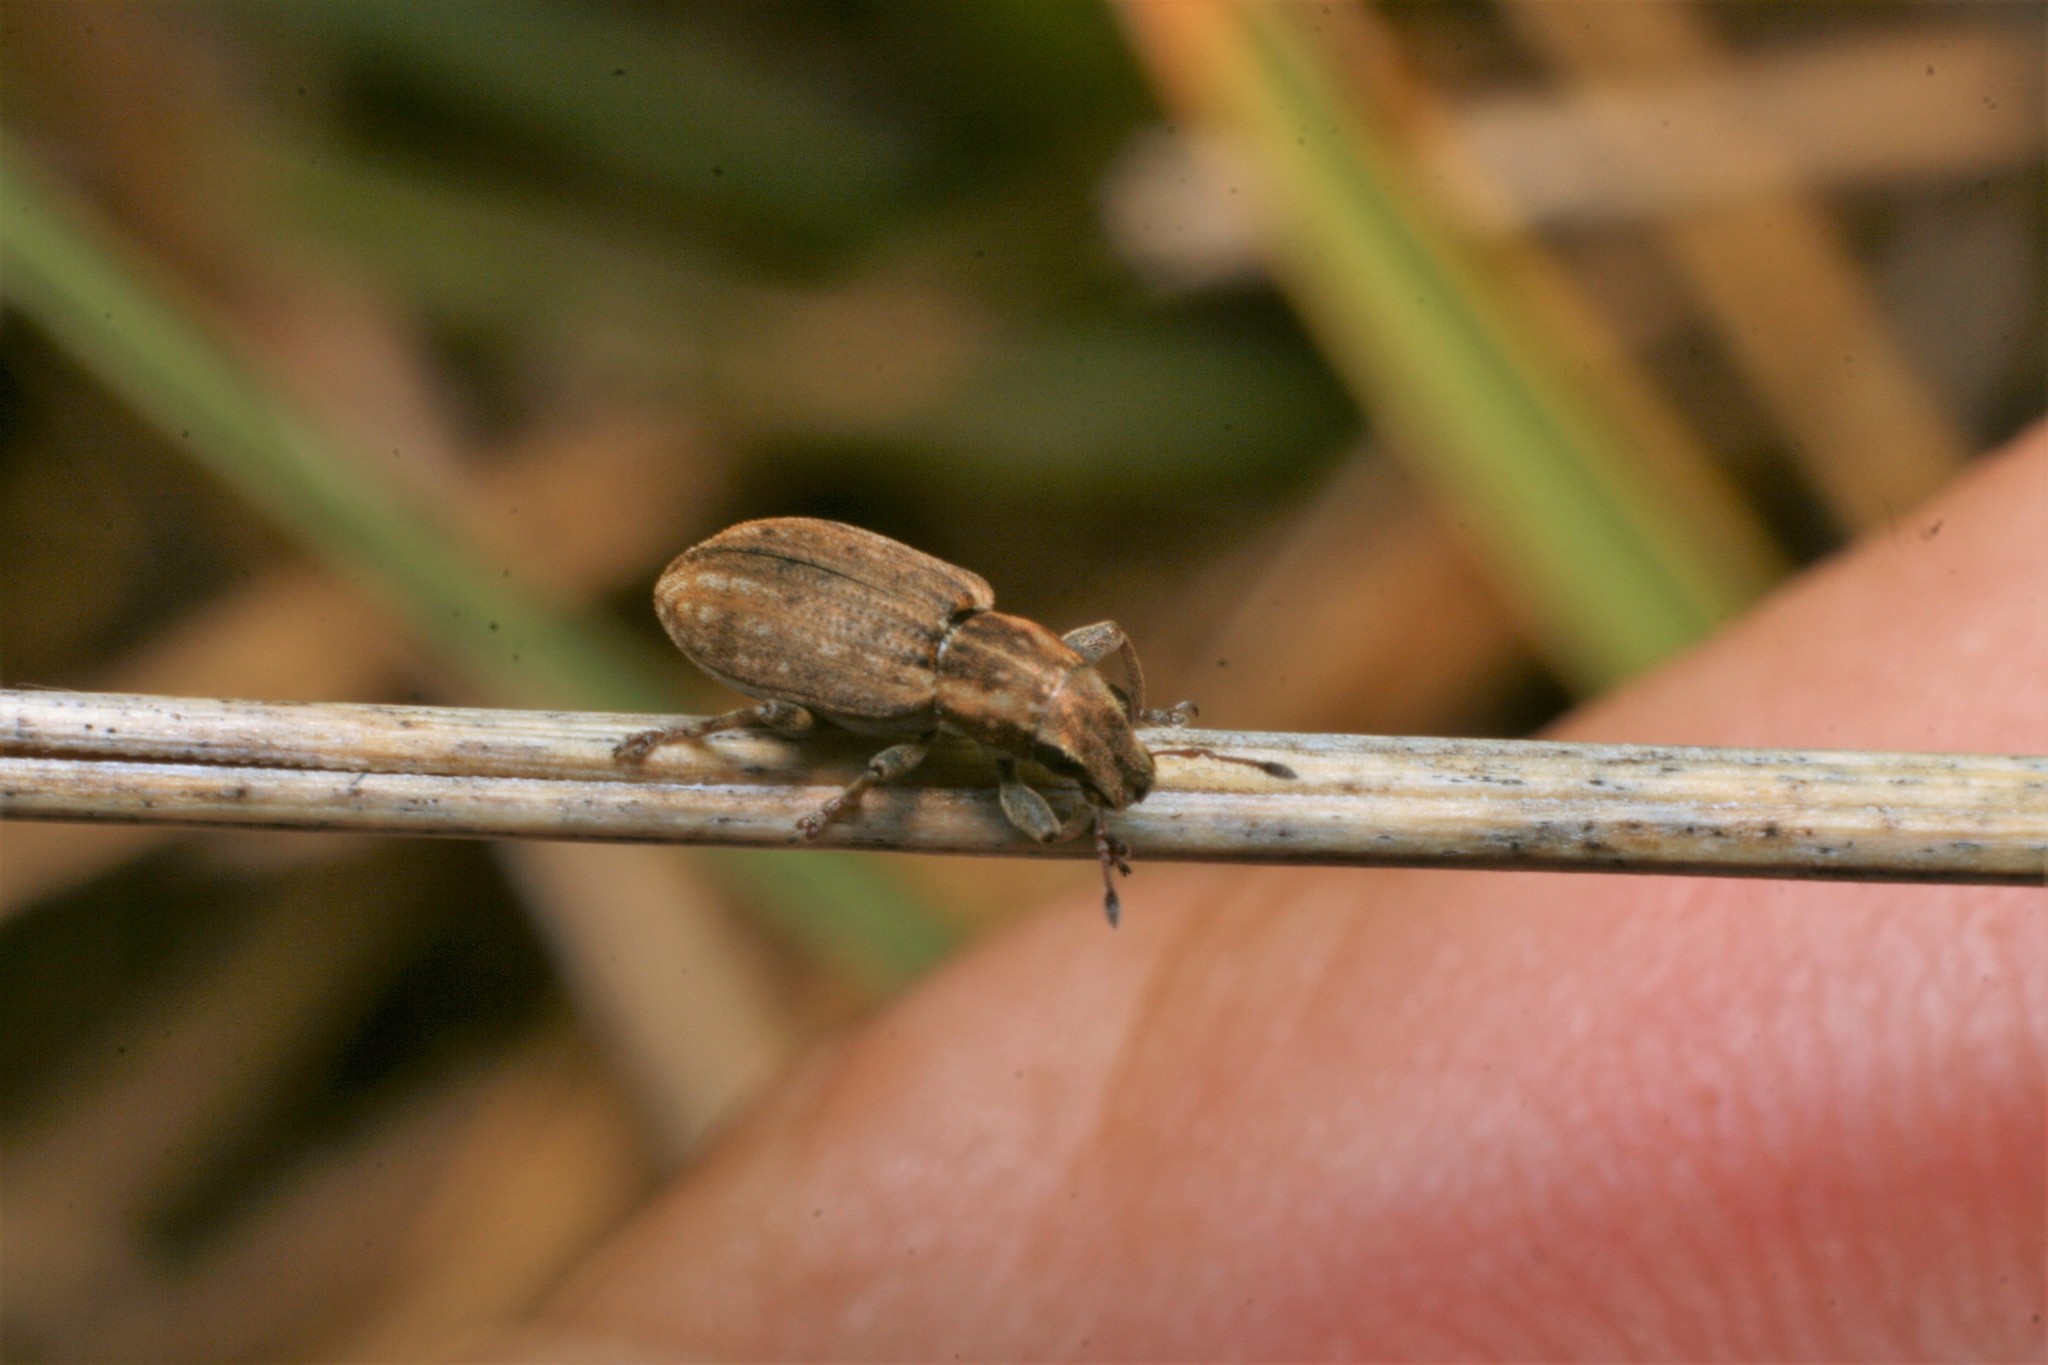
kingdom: Animalia
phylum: Arthropoda
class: Insecta
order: Coleoptera
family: Curculionidae
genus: Sitona
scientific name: Sitona obsoletus
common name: Weevil
